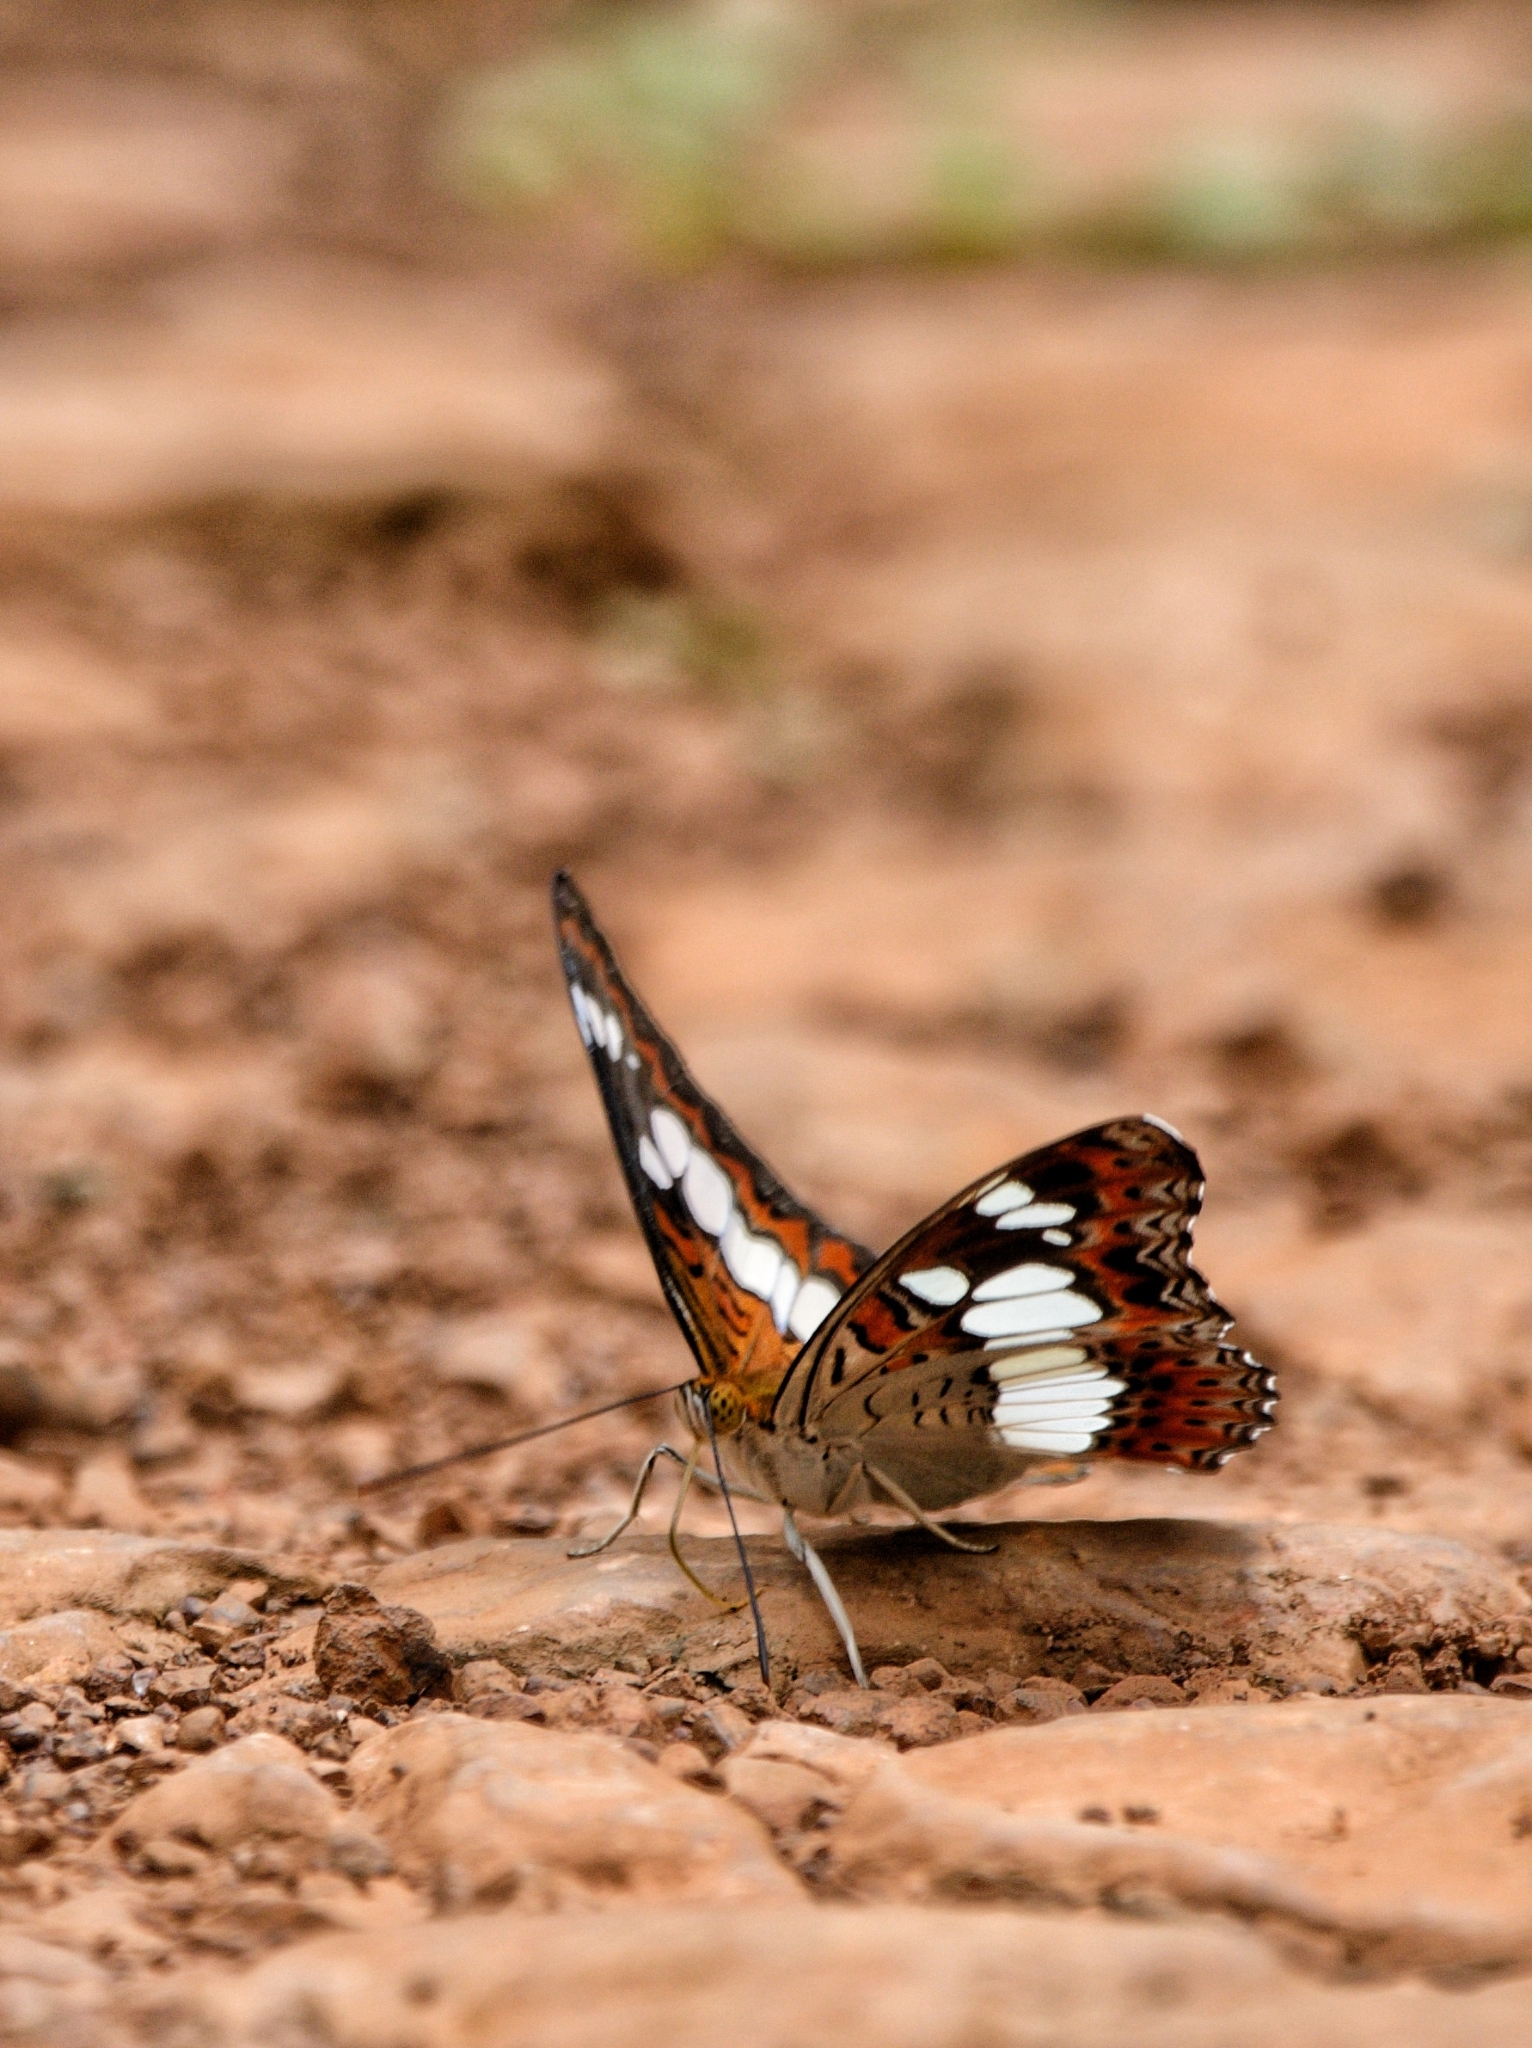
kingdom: Animalia
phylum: Arthropoda
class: Insecta
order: Lepidoptera
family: Nymphalidae
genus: Limenitis
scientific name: Limenitis Moduza procris
